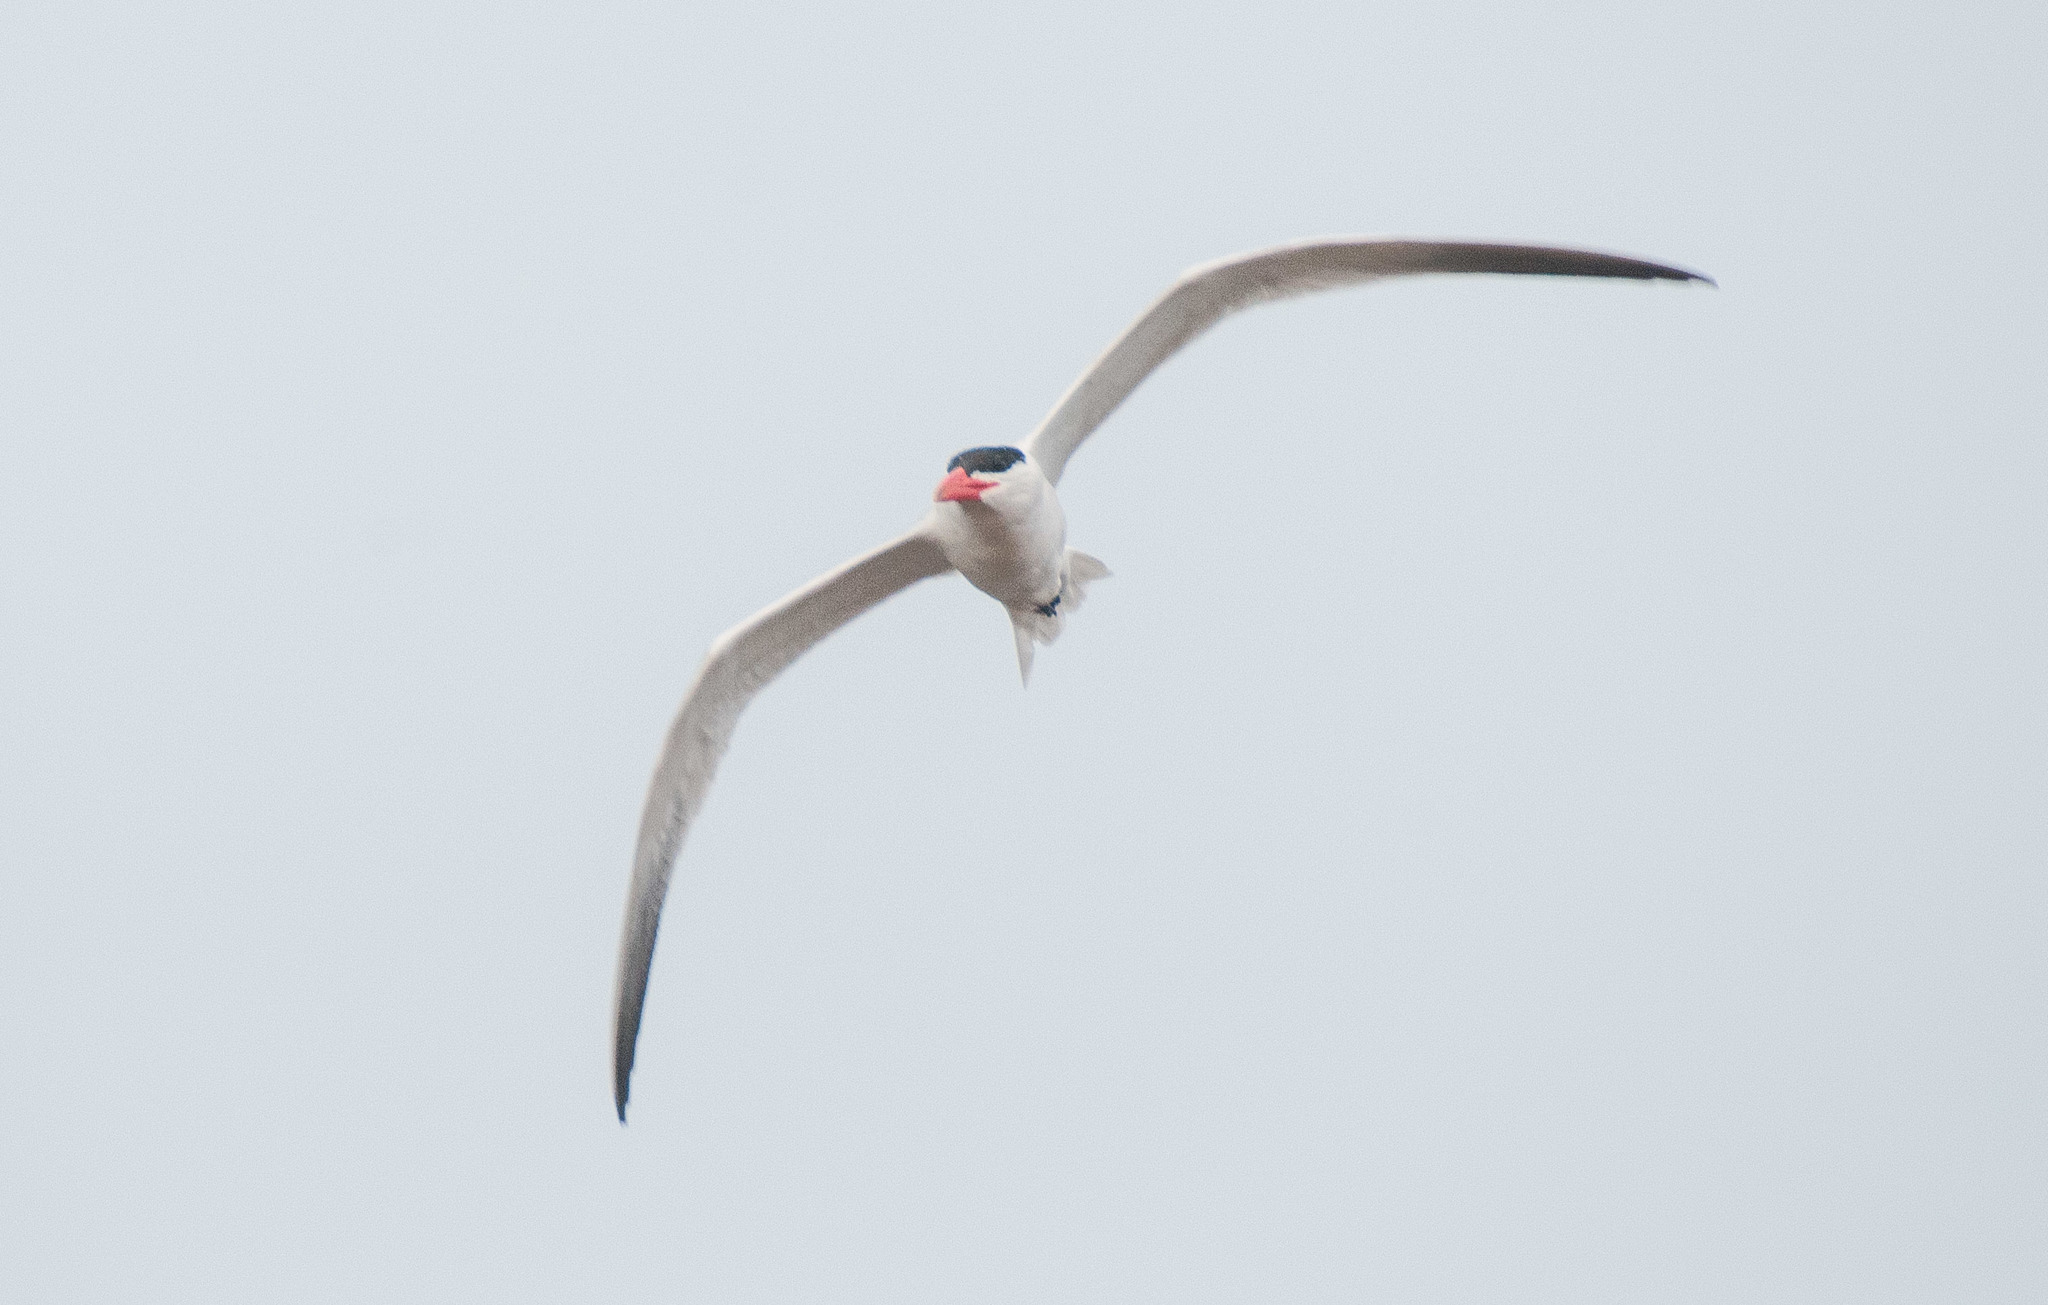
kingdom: Animalia
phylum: Chordata
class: Aves
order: Charadriiformes
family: Laridae
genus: Hydroprogne
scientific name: Hydroprogne caspia
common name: Caspian tern
